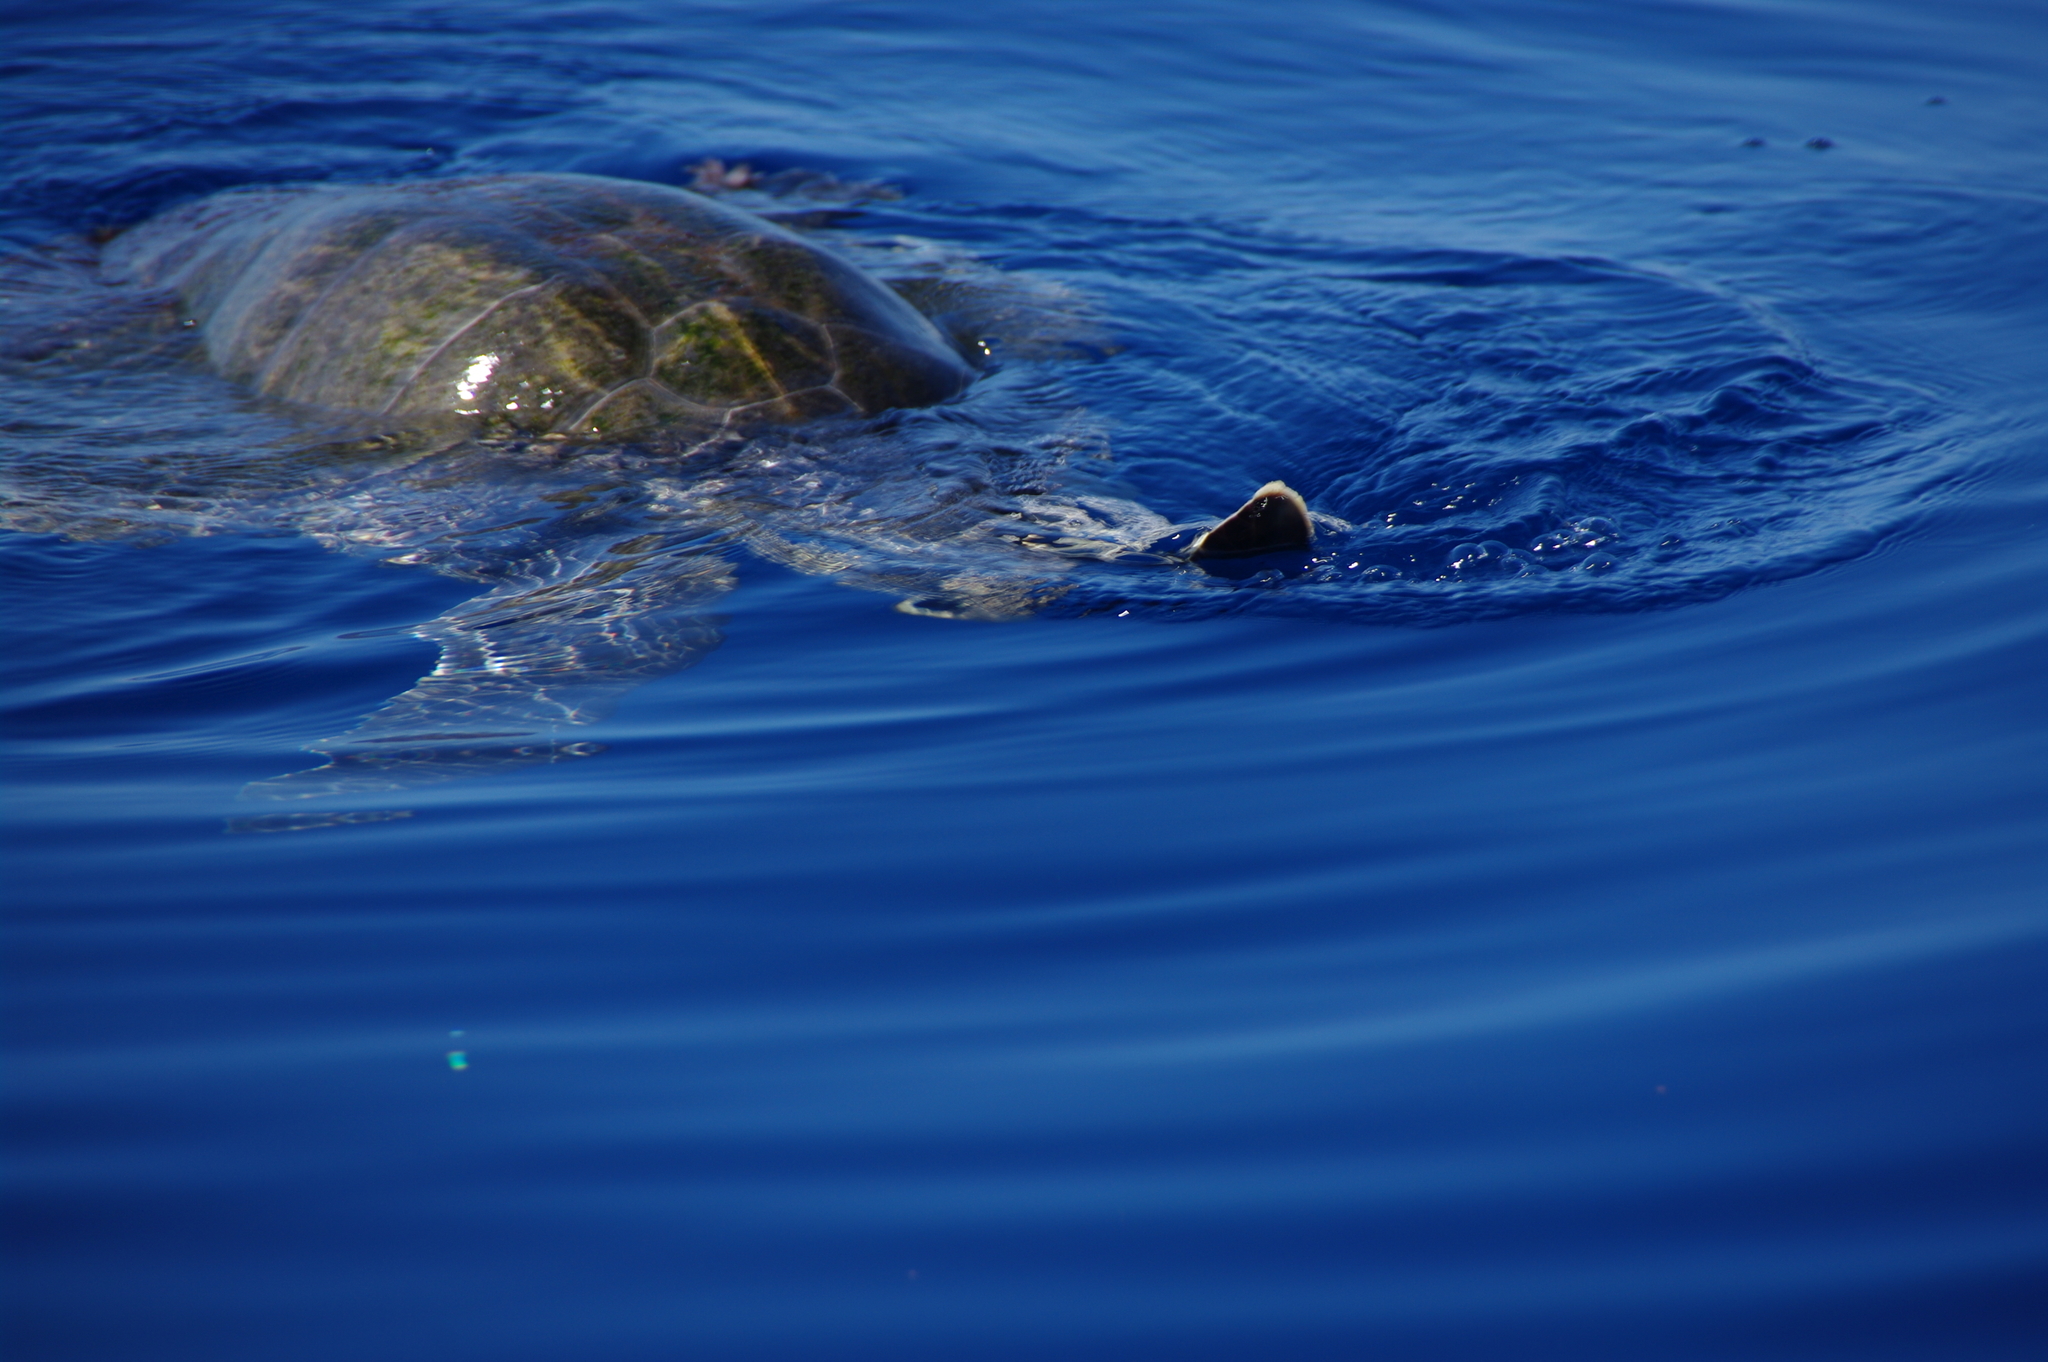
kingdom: Animalia
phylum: Chordata
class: Testudines
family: Cheloniidae
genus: Chelonia
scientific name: Chelonia mydas
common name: Green turtle
